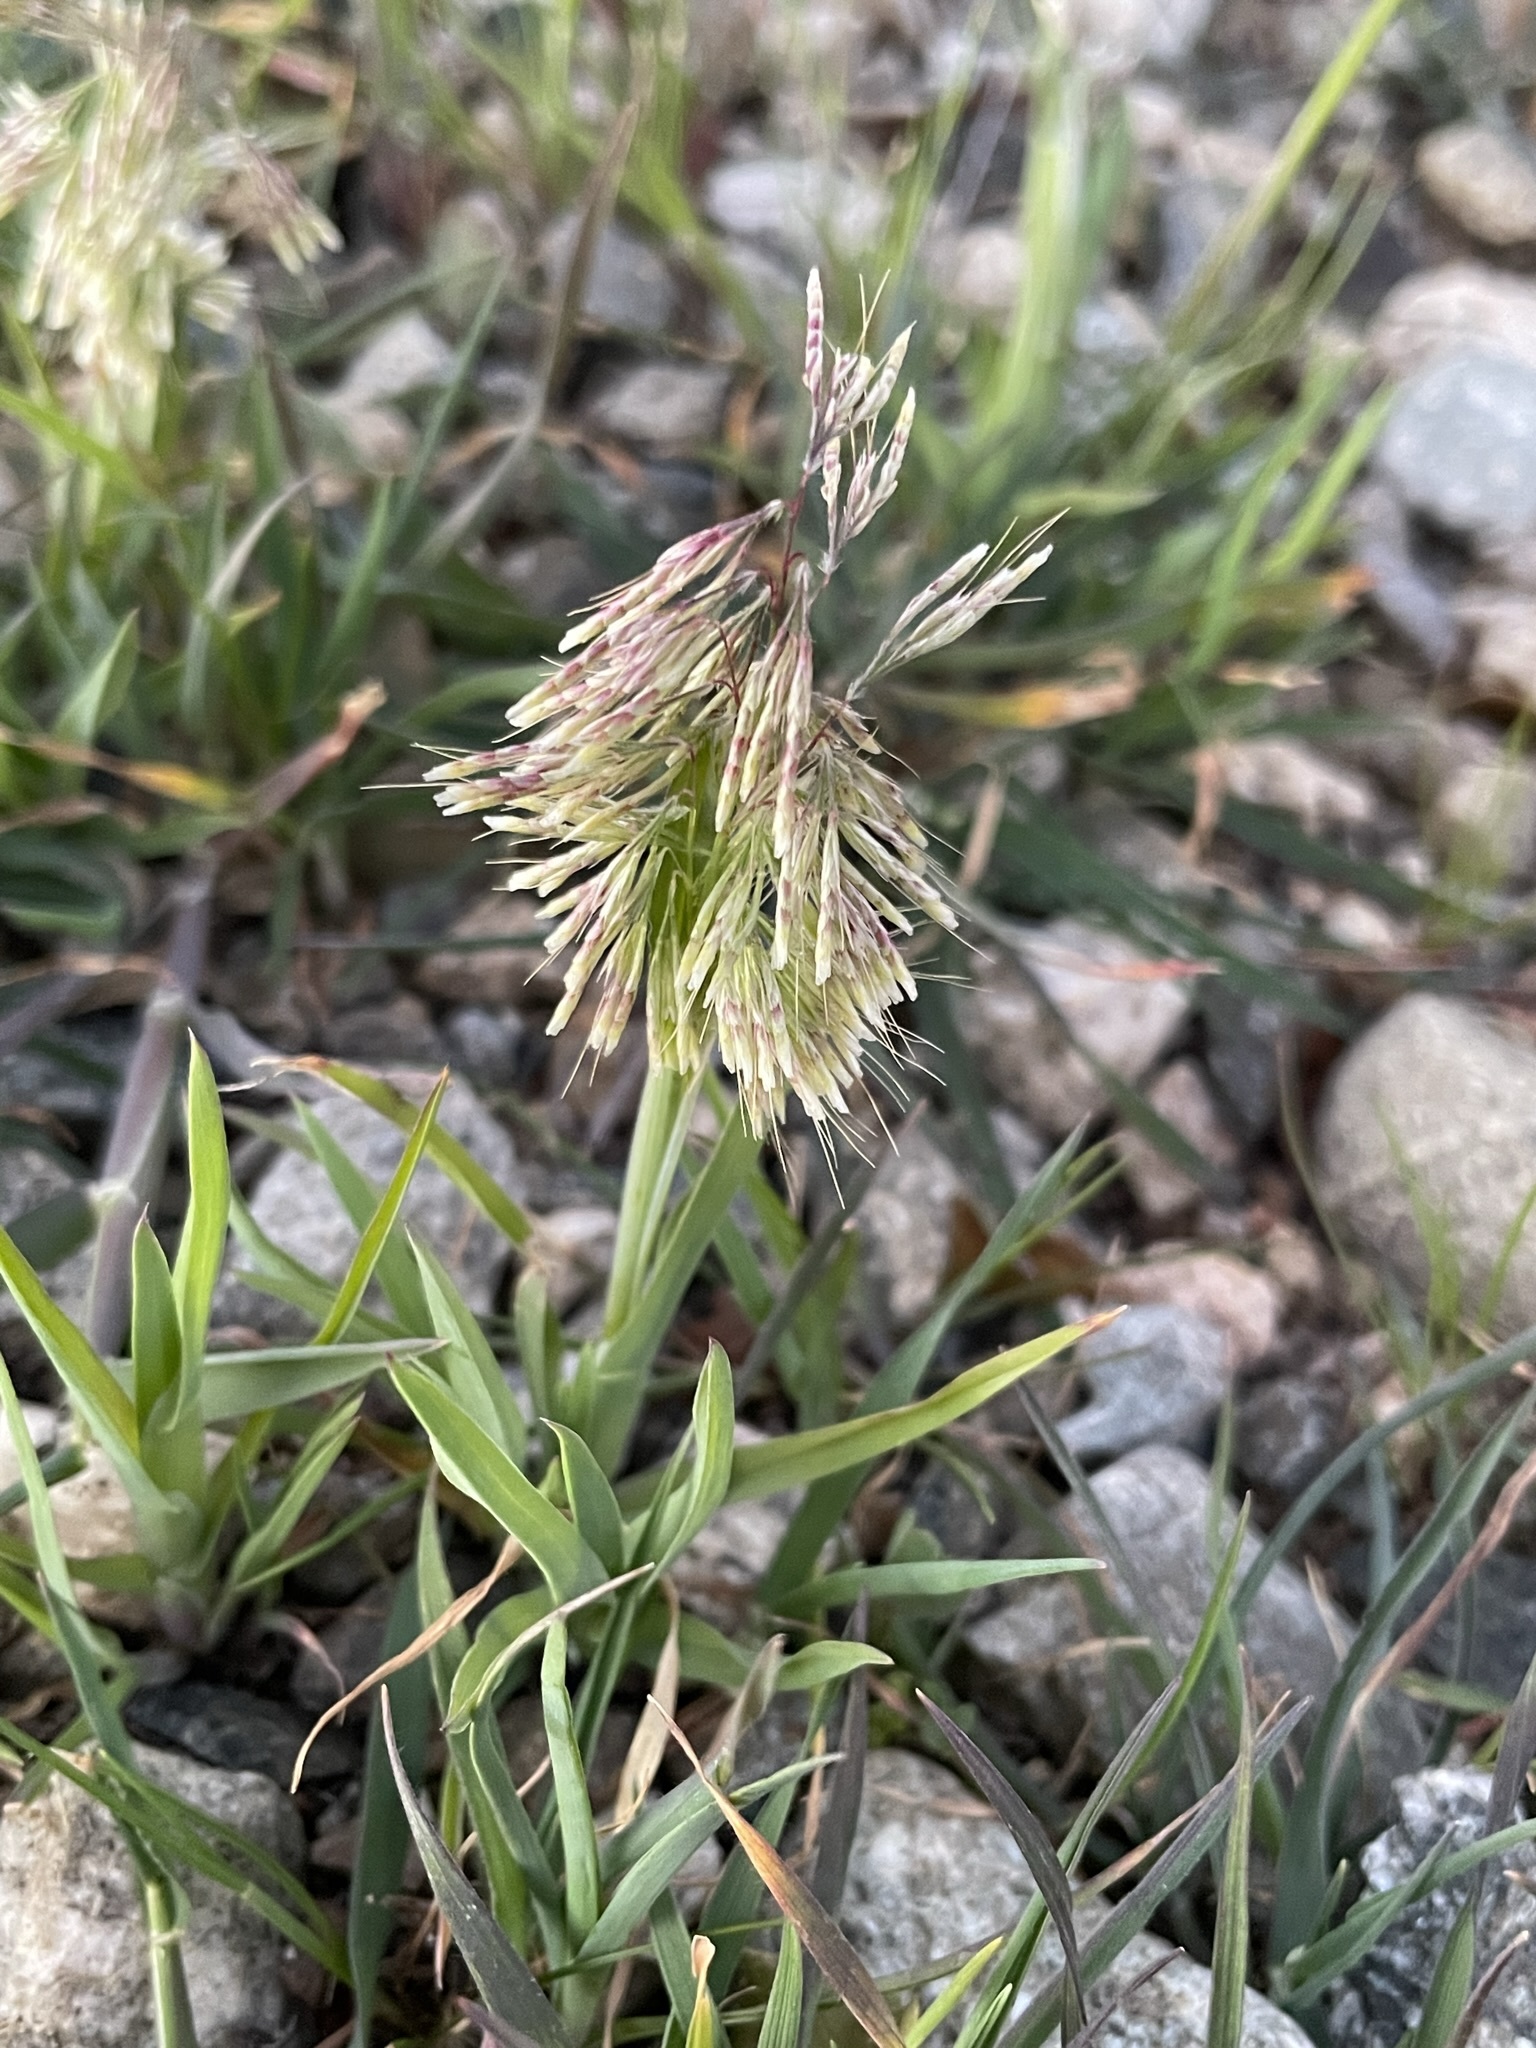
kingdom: Plantae
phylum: Tracheophyta
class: Liliopsida
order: Poales
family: Poaceae
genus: Lamarckia
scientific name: Lamarckia aurea
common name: Golden dog's-tail
